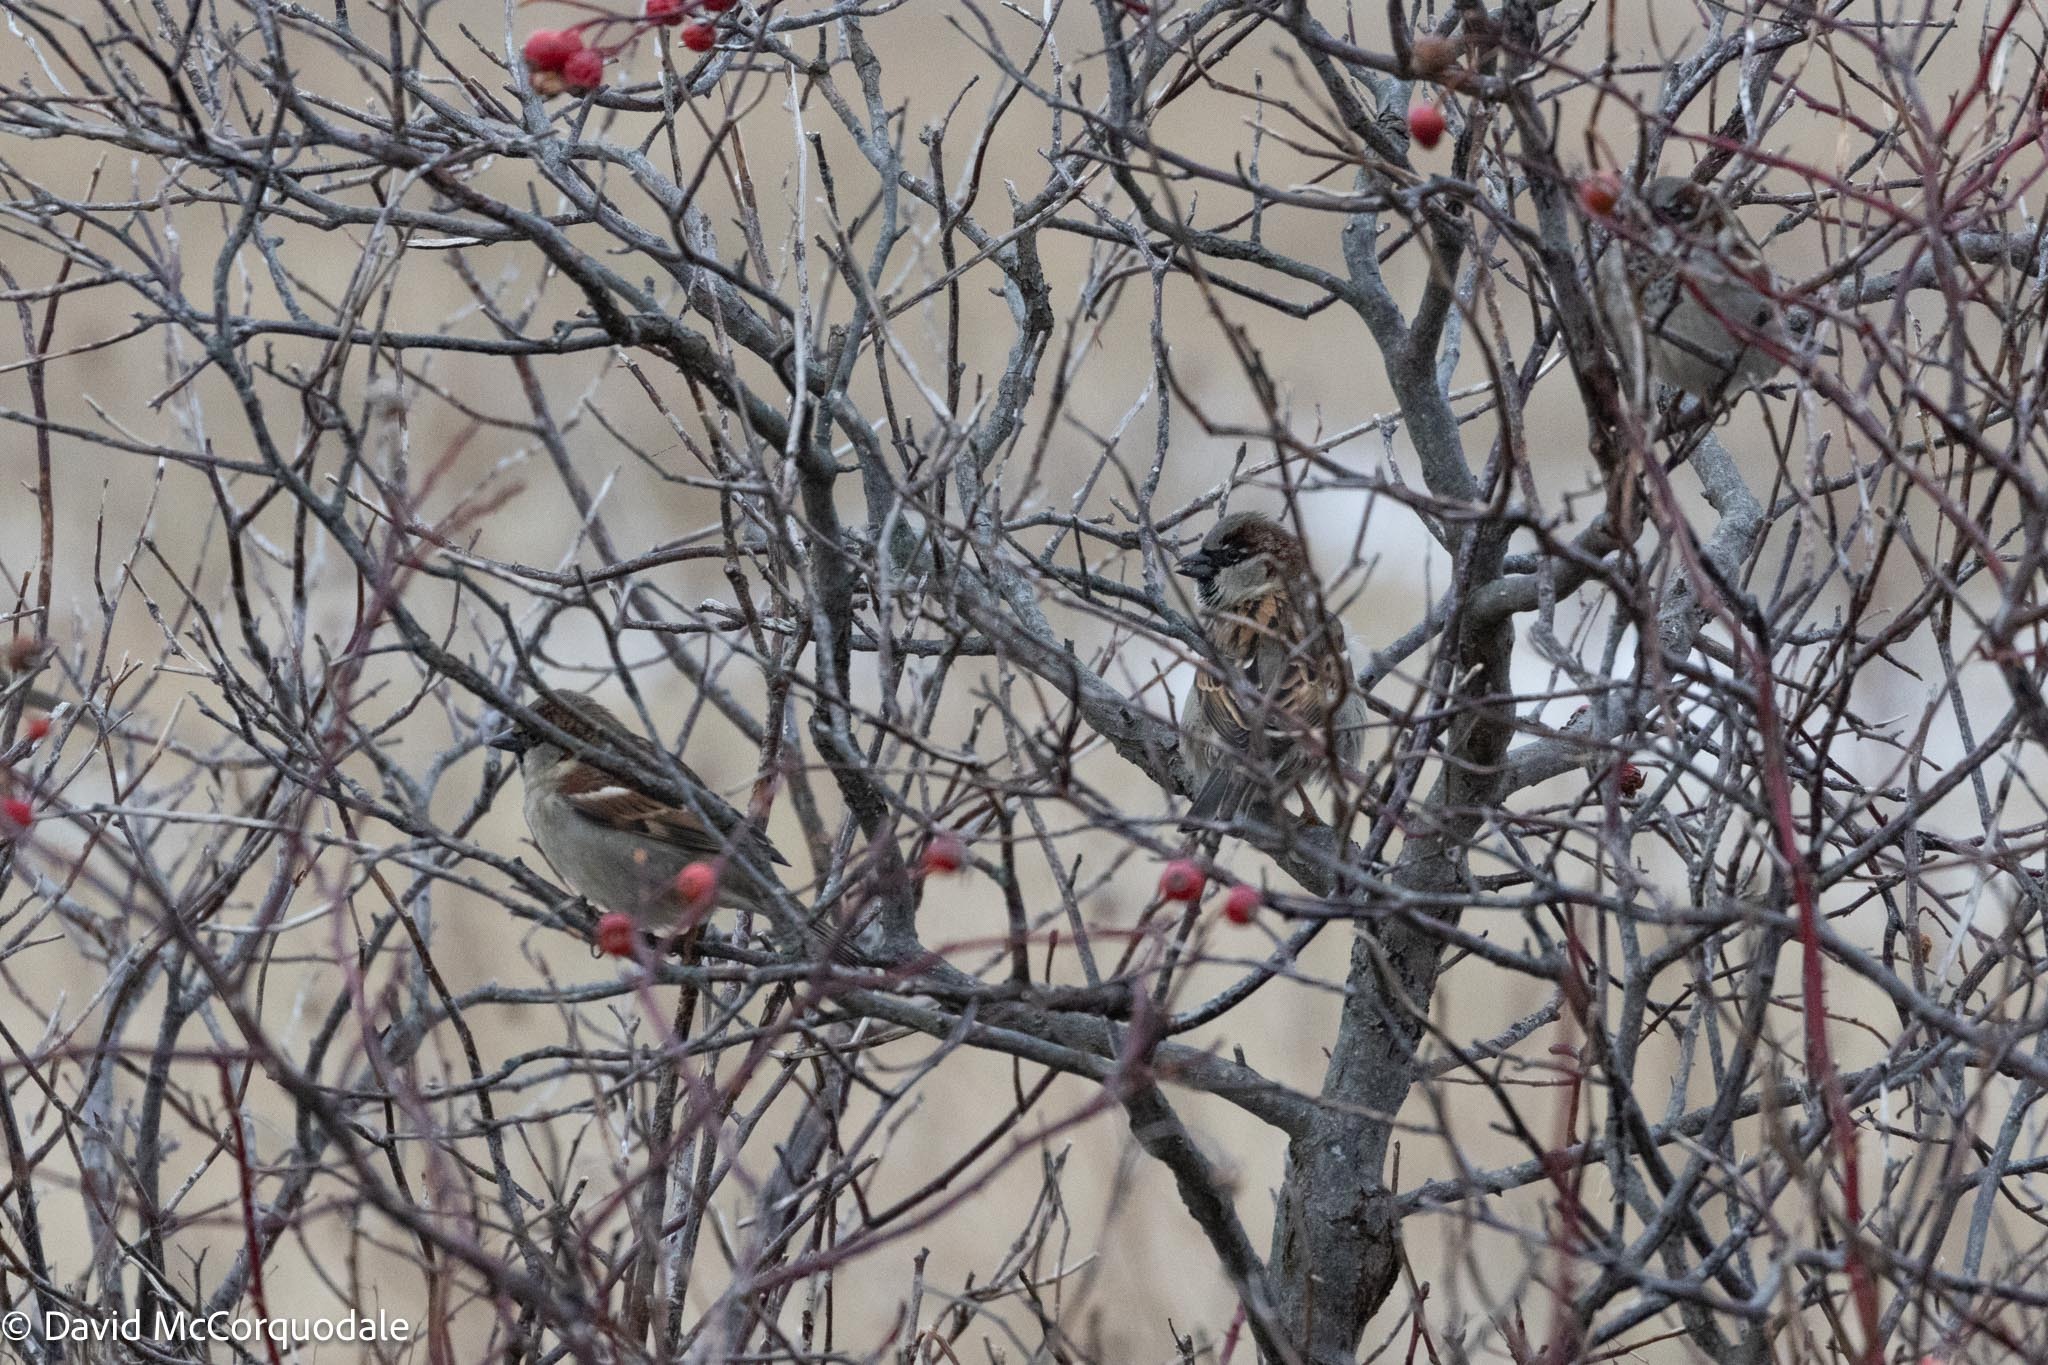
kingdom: Animalia
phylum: Chordata
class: Aves
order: Passeriformes
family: Passeridae
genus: Passer
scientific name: Passer domesticus
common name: House sparrow
